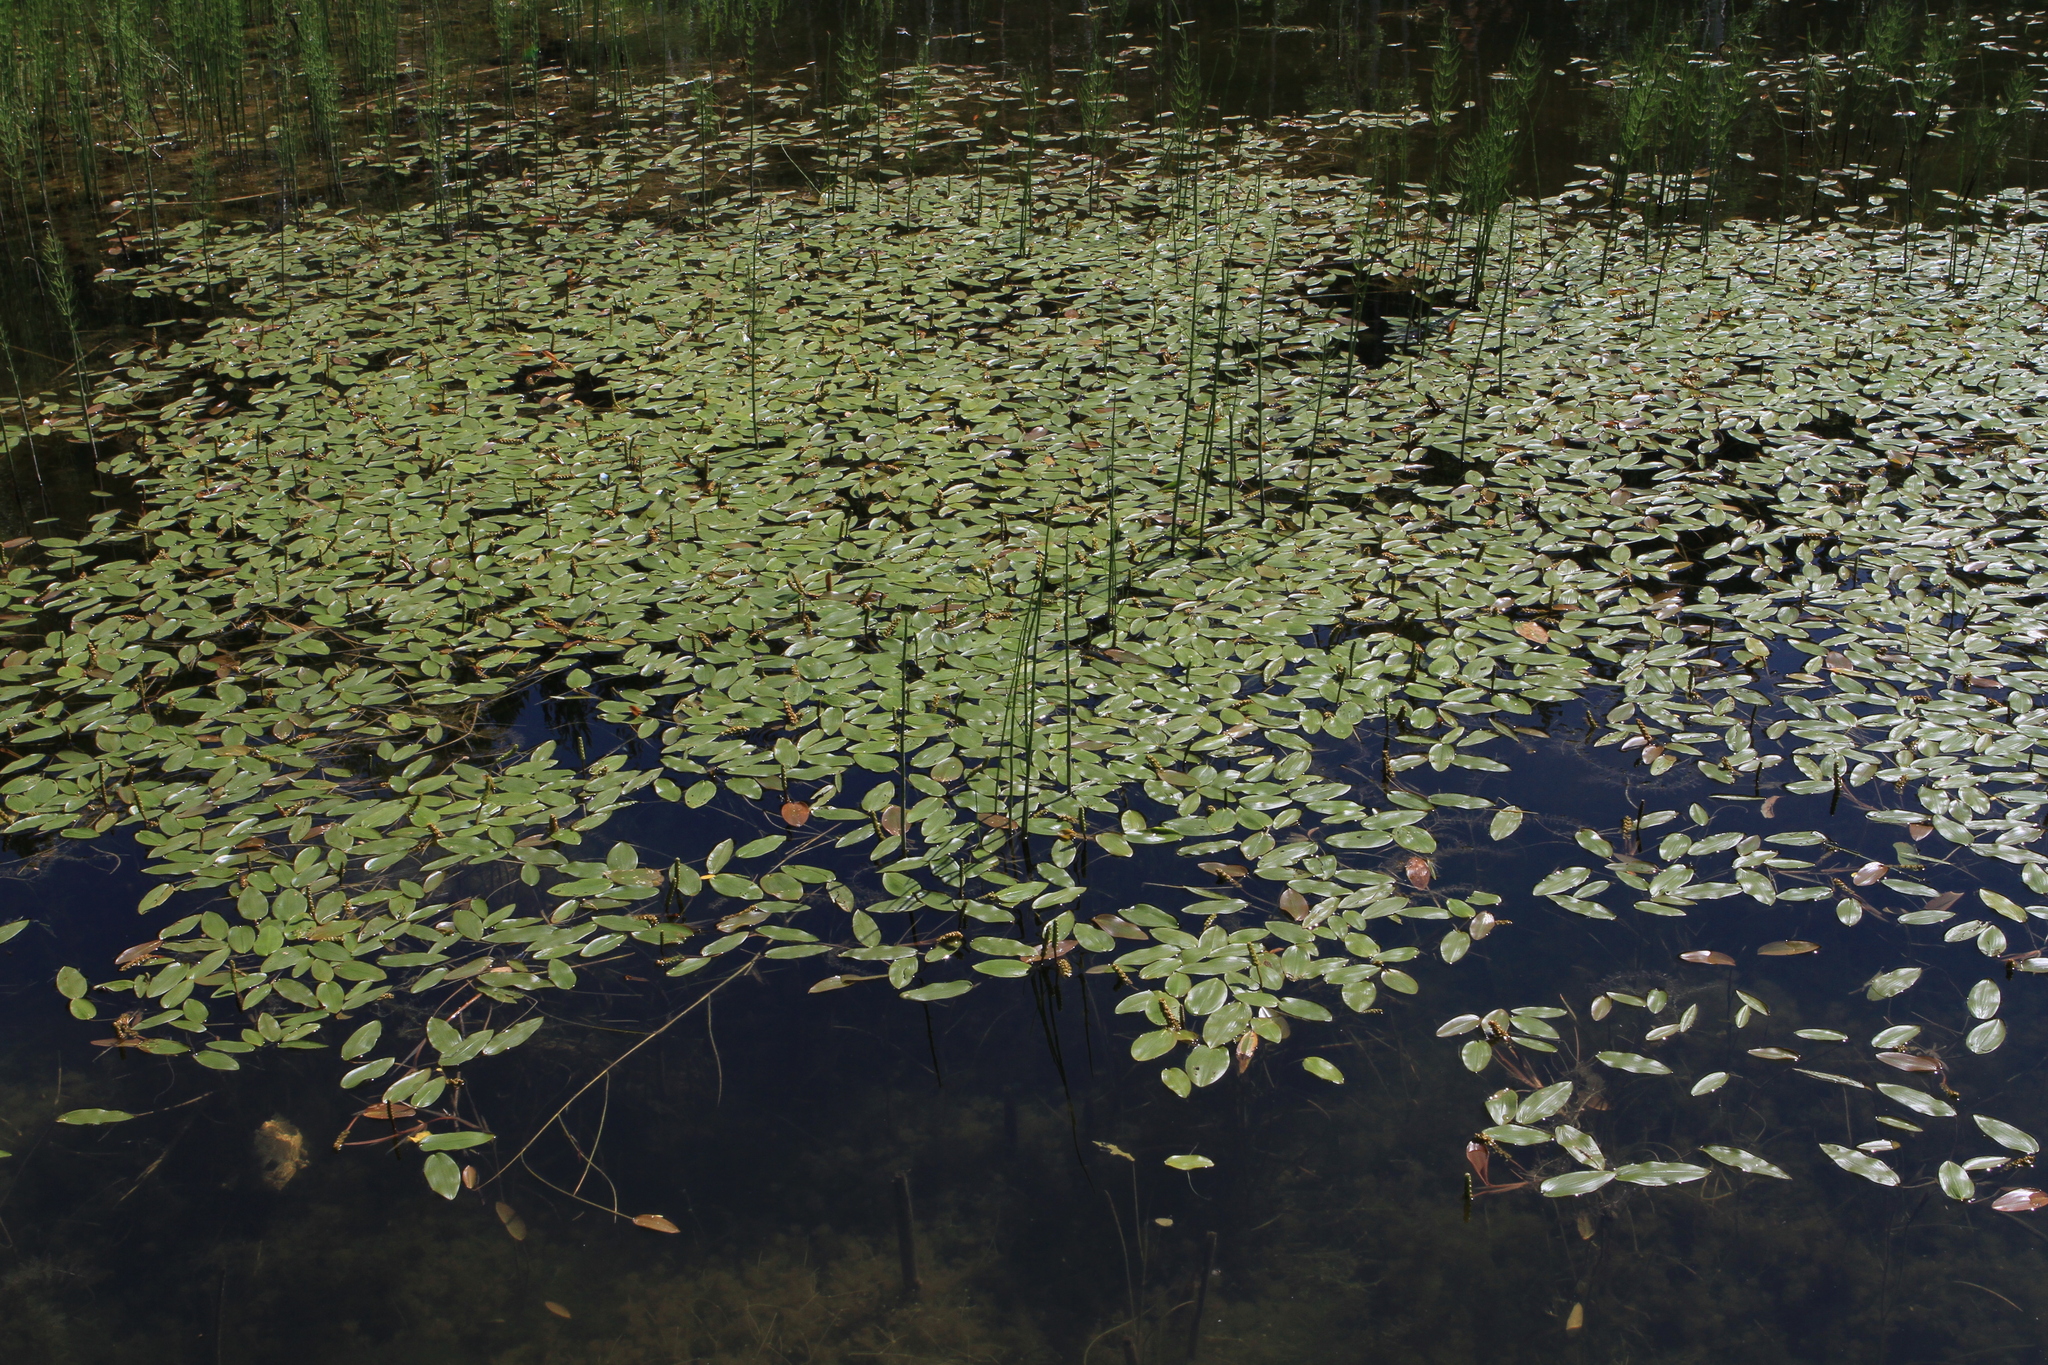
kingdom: Plantae
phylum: Tracheophyta
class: Liliopsida
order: Alismatales
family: Potamogetonaceae
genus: Potamogeton
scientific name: Potamogeton natans
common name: Broad-leaved pondweed
